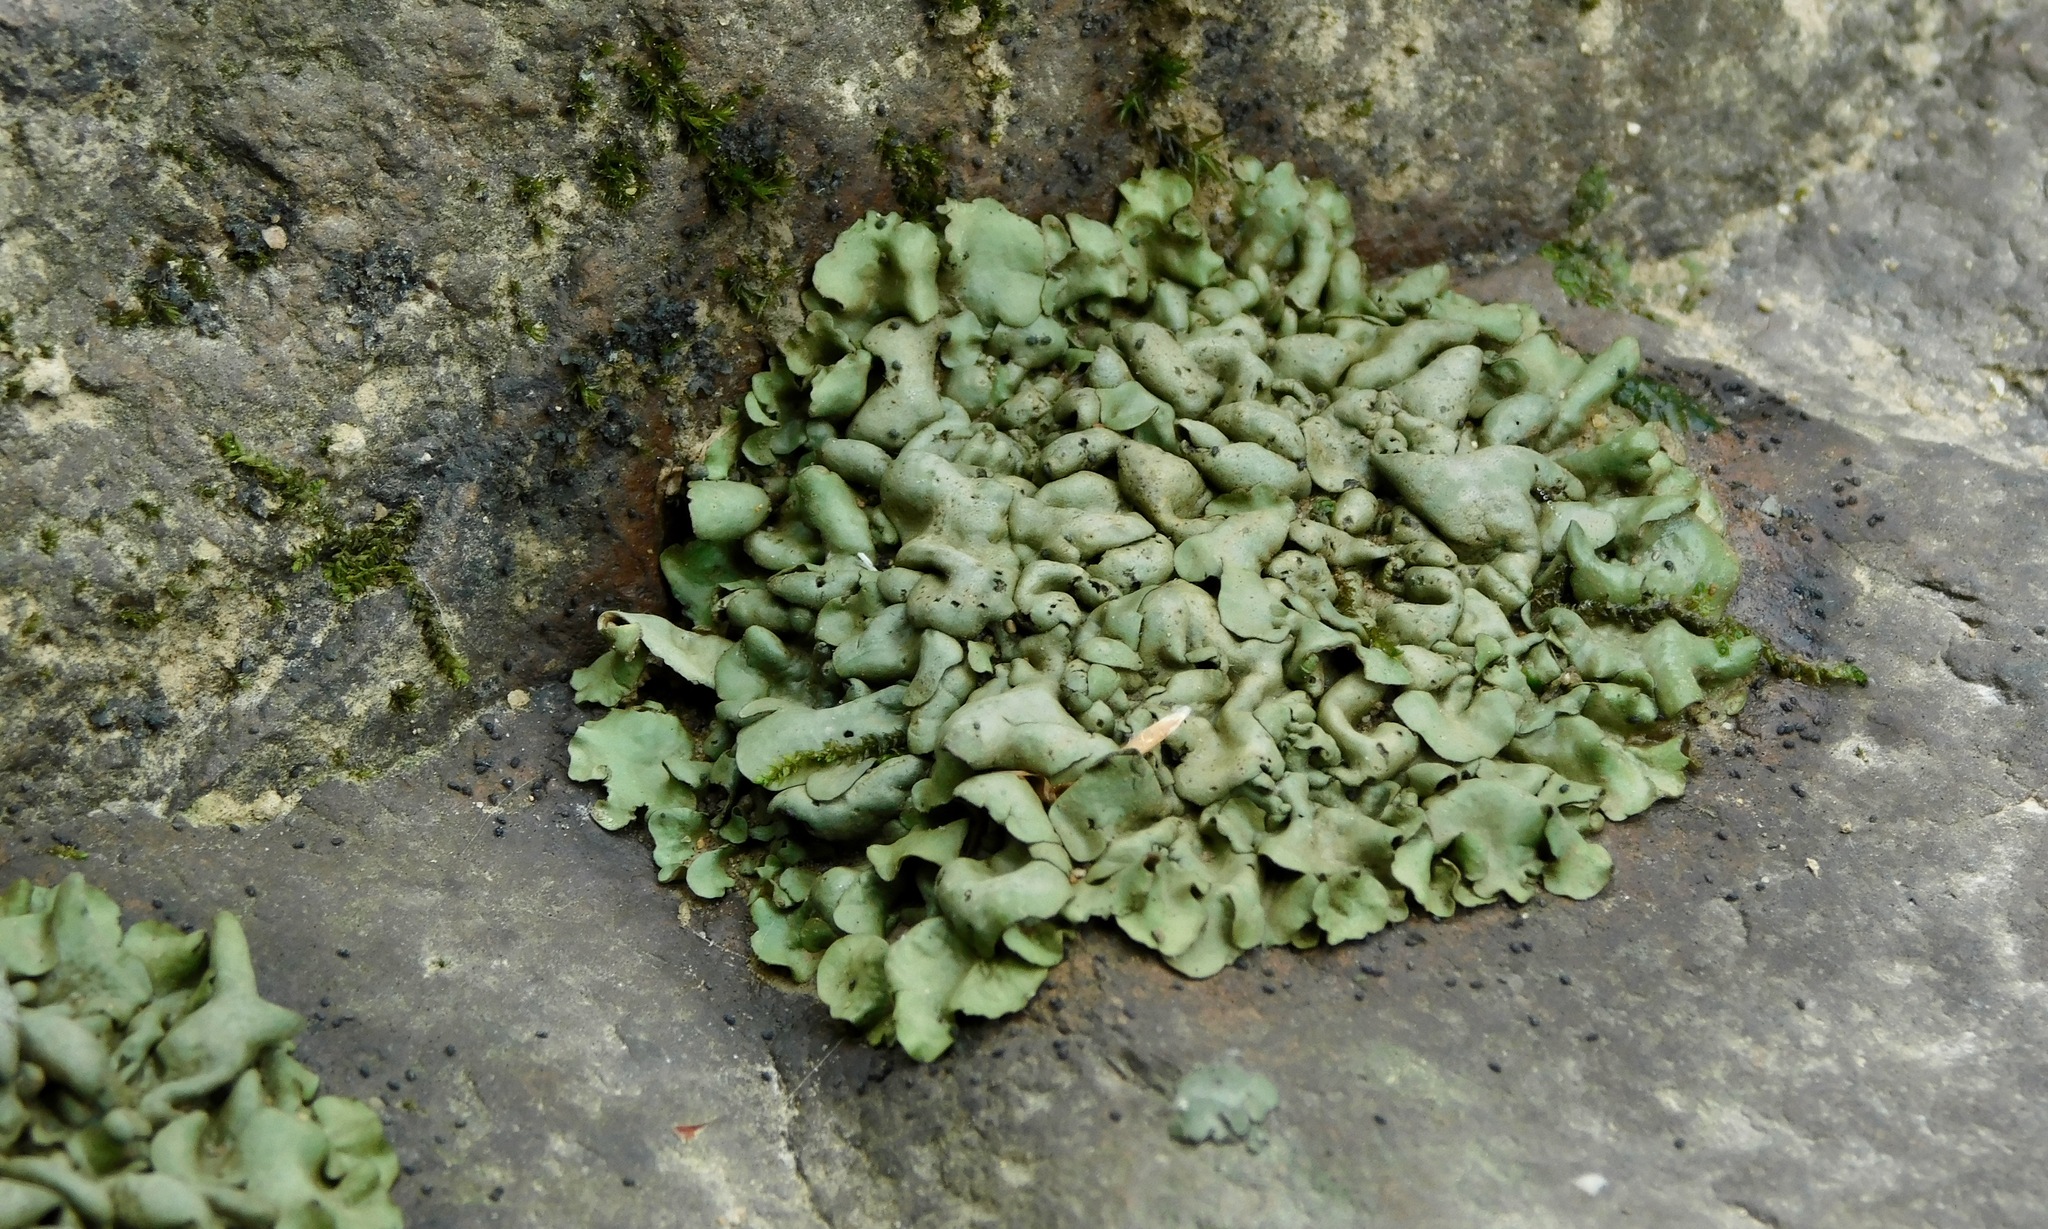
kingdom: Fungi
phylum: Ascomycota
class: Eurotiomycetes
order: Verrucariales
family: Verrucariaceae
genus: Dermatocarpon
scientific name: Dermatocarpon luridum
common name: Brook stippleback lichen
